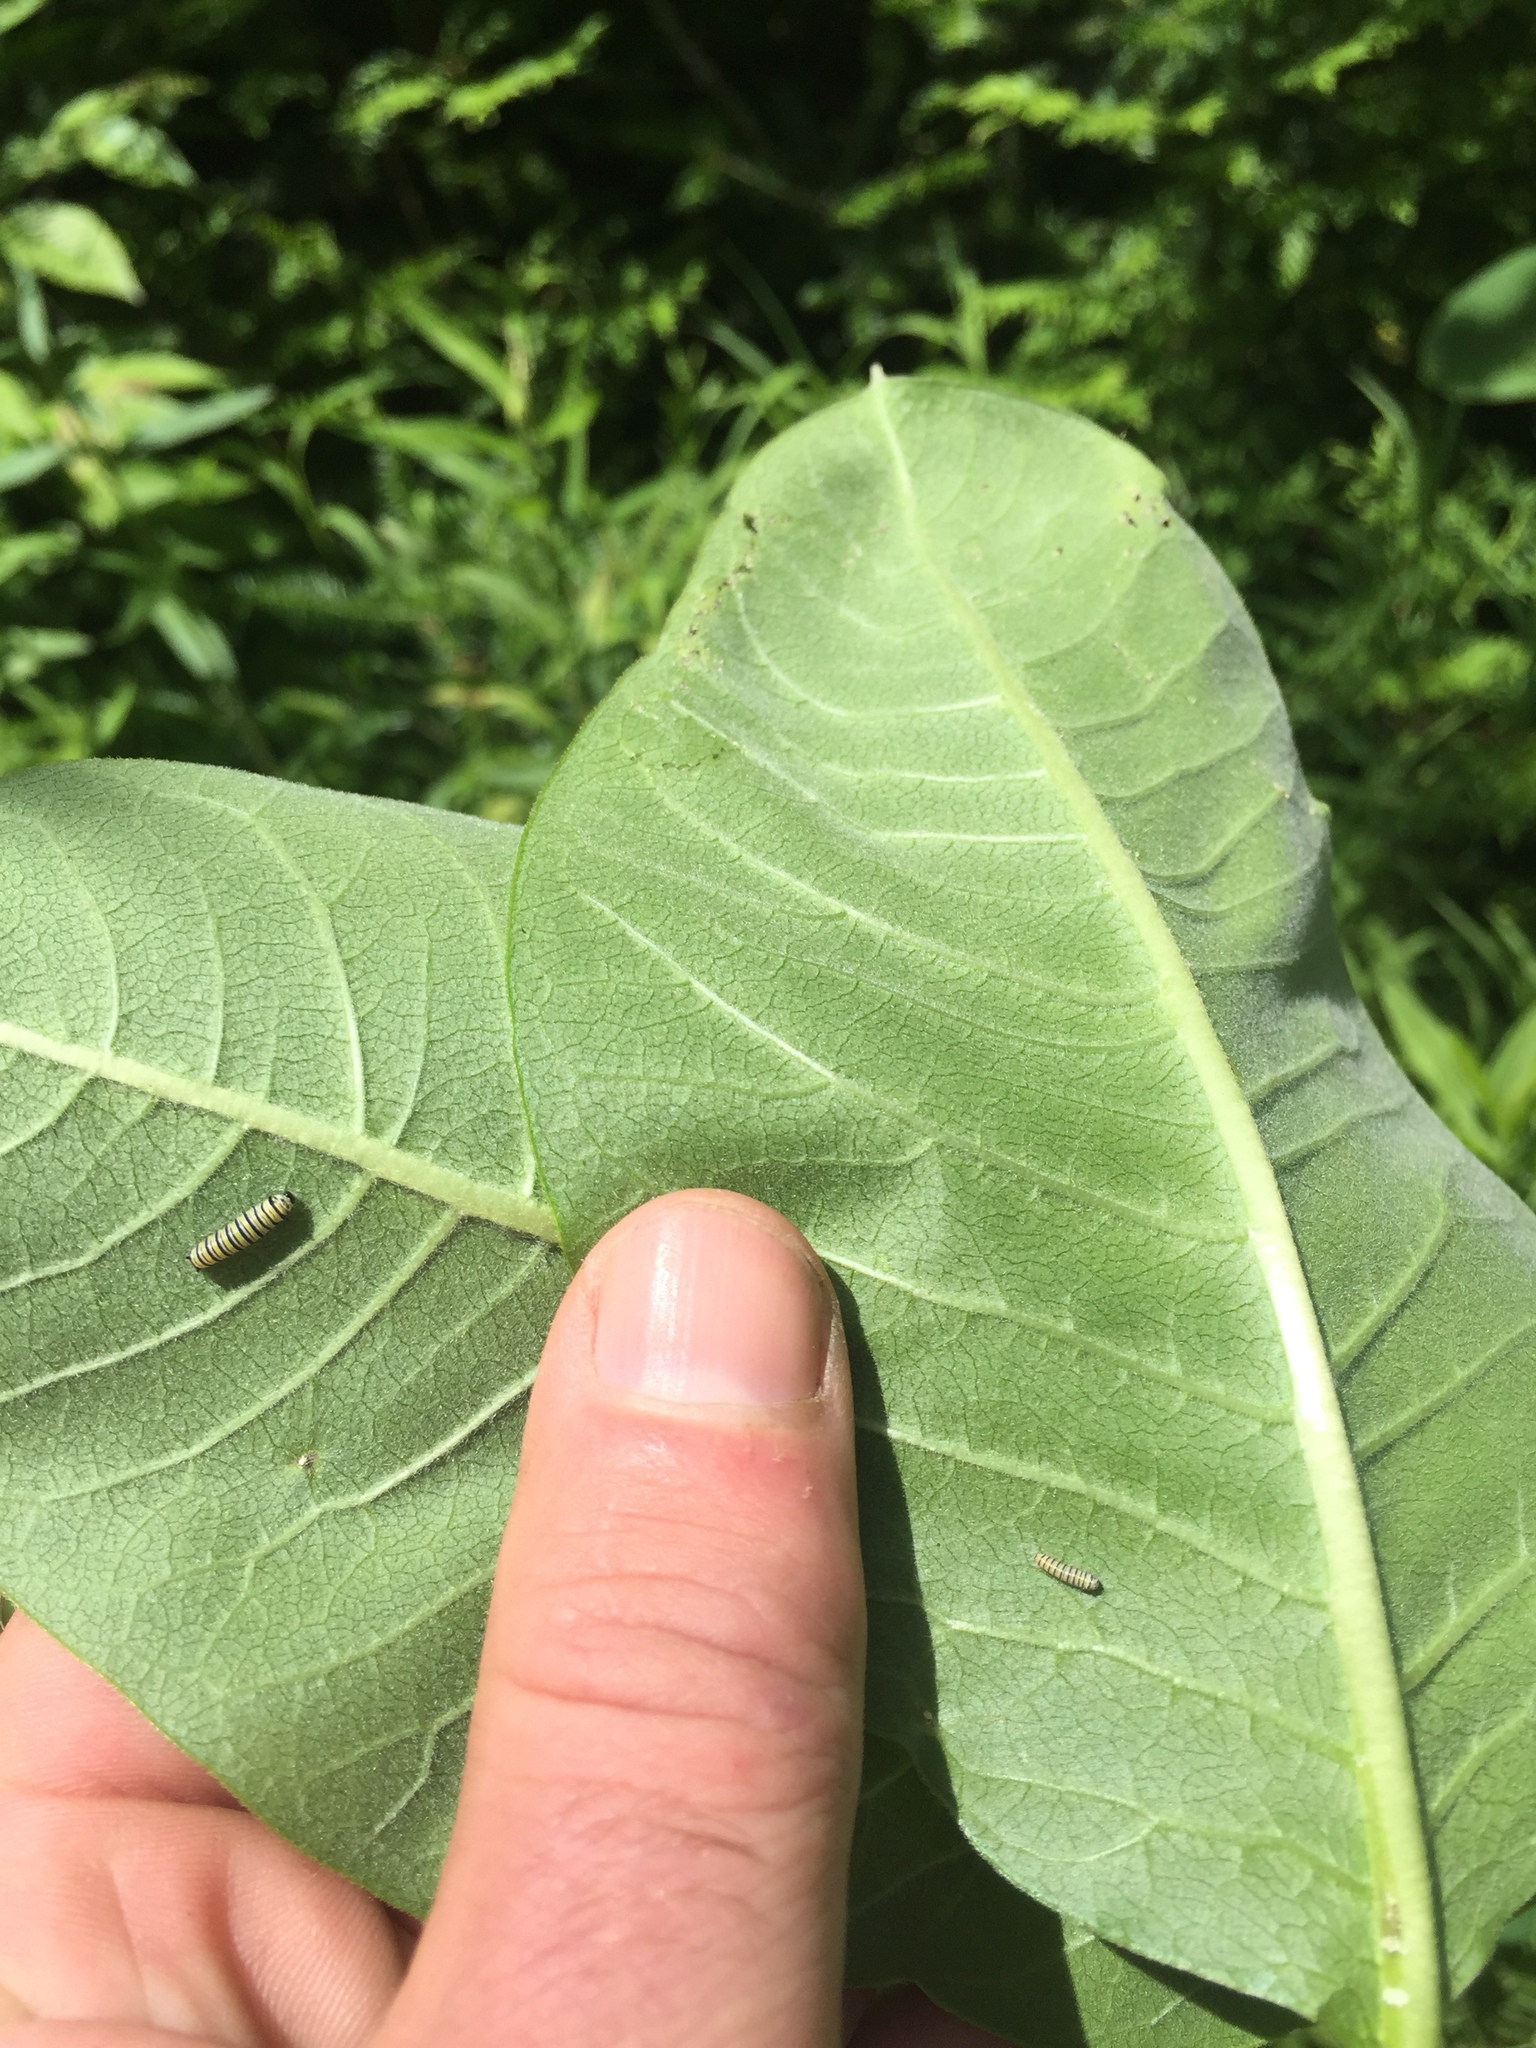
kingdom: Animalia
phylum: Arthropoda
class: Insecta
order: Lepidoptera
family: Nymphalidae
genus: Danaus
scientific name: Danaus plexippus
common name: Monarch
